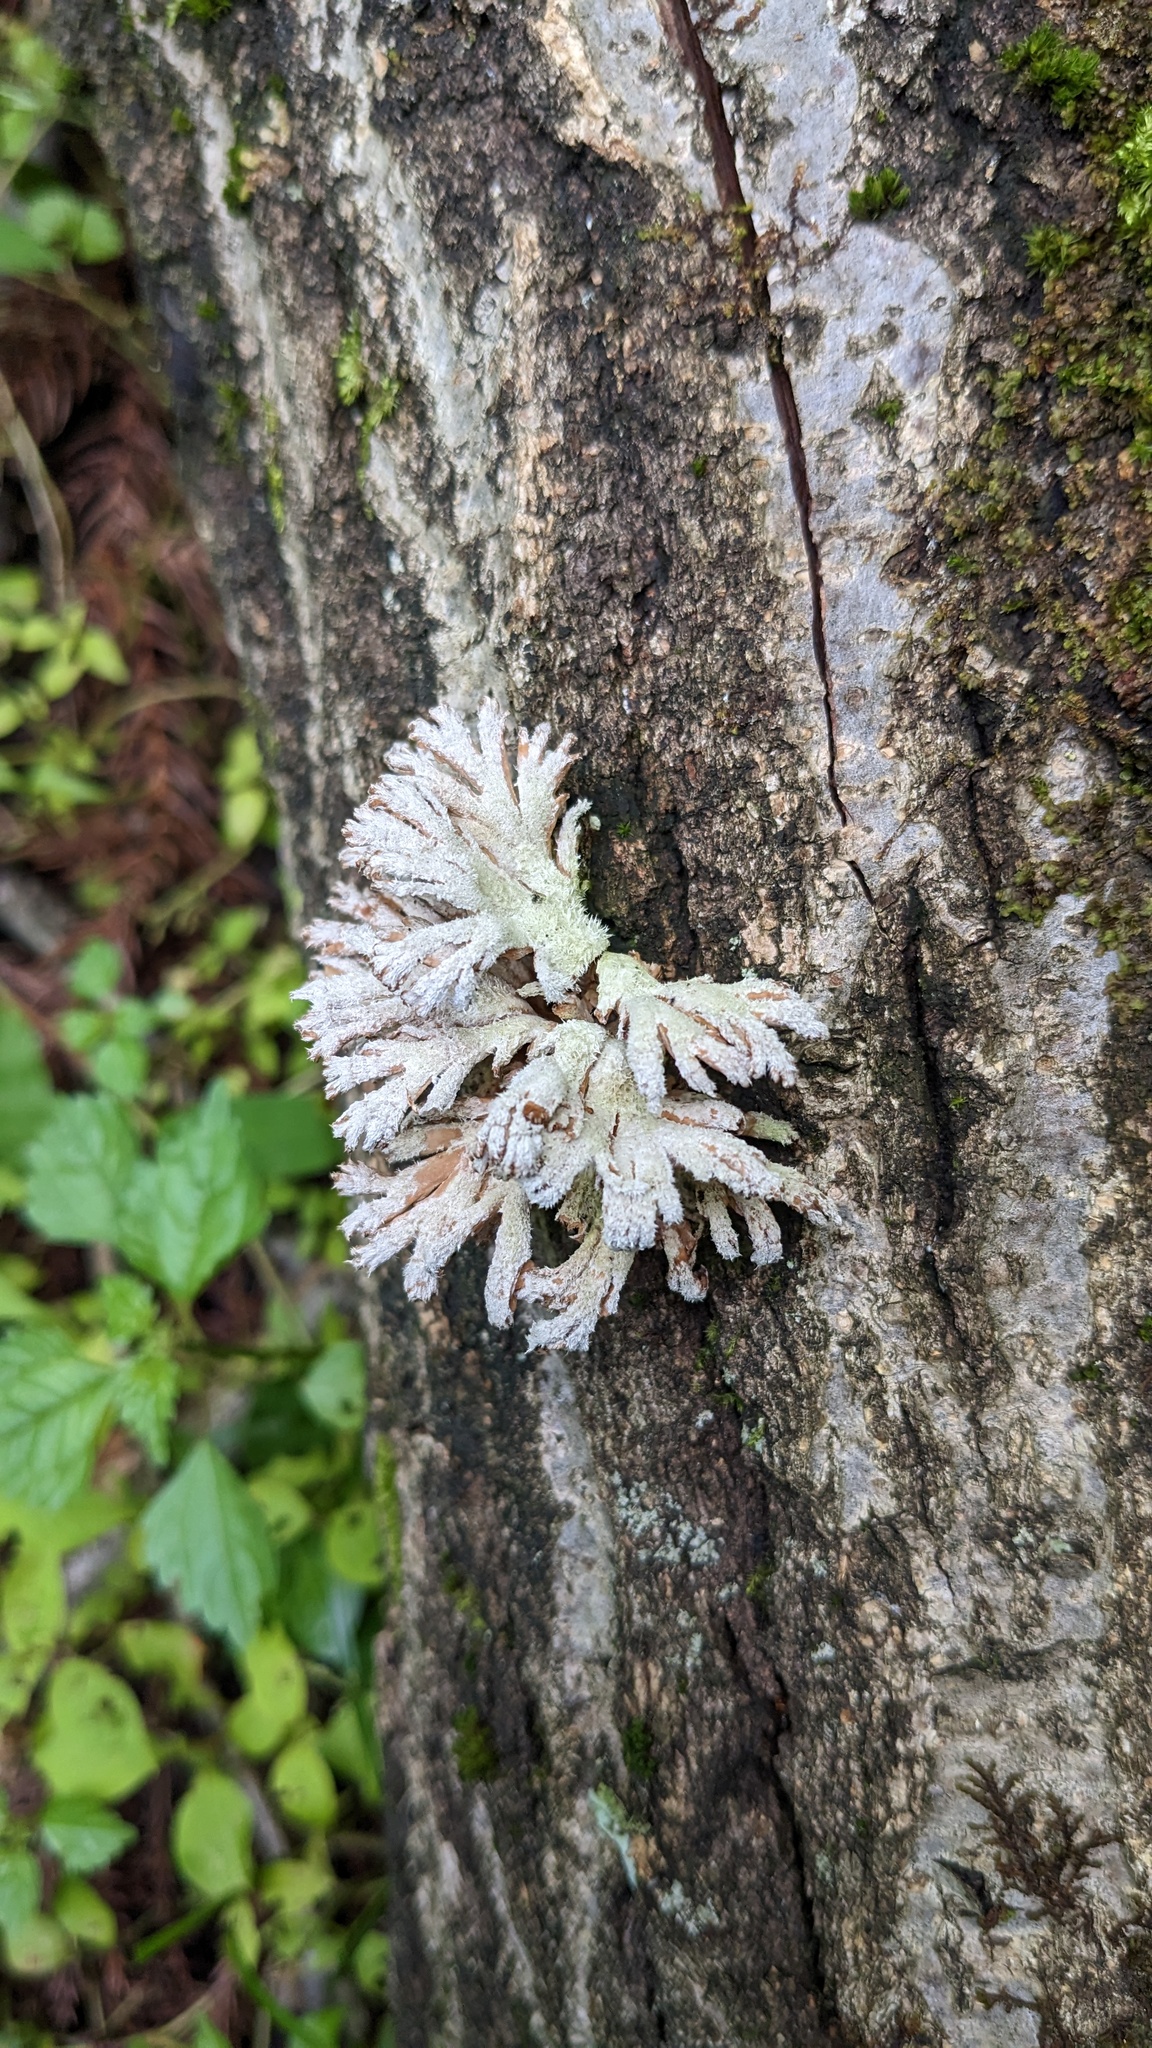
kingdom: Fungi
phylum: Basidiomycota
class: Agaricomycetes
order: Agaricales
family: Schizophyllaceae
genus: Schizophyllum
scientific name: Schizophyllum commune
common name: Common porecrust
